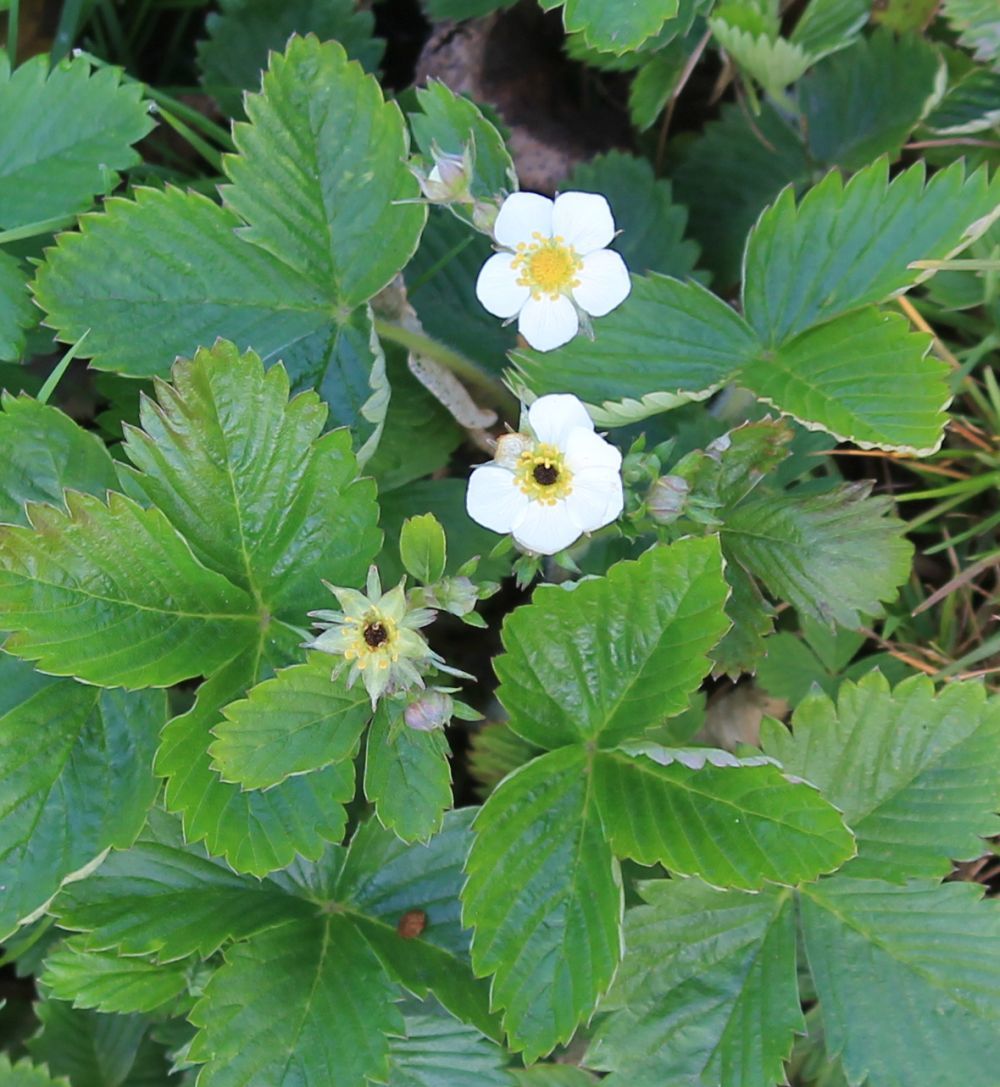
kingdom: Plantae
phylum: Tracheophyta
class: Magnoliopsida
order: Rosales
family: Rosaceae
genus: Fragaria
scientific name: Fragaria vesca
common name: Wild strawberry
